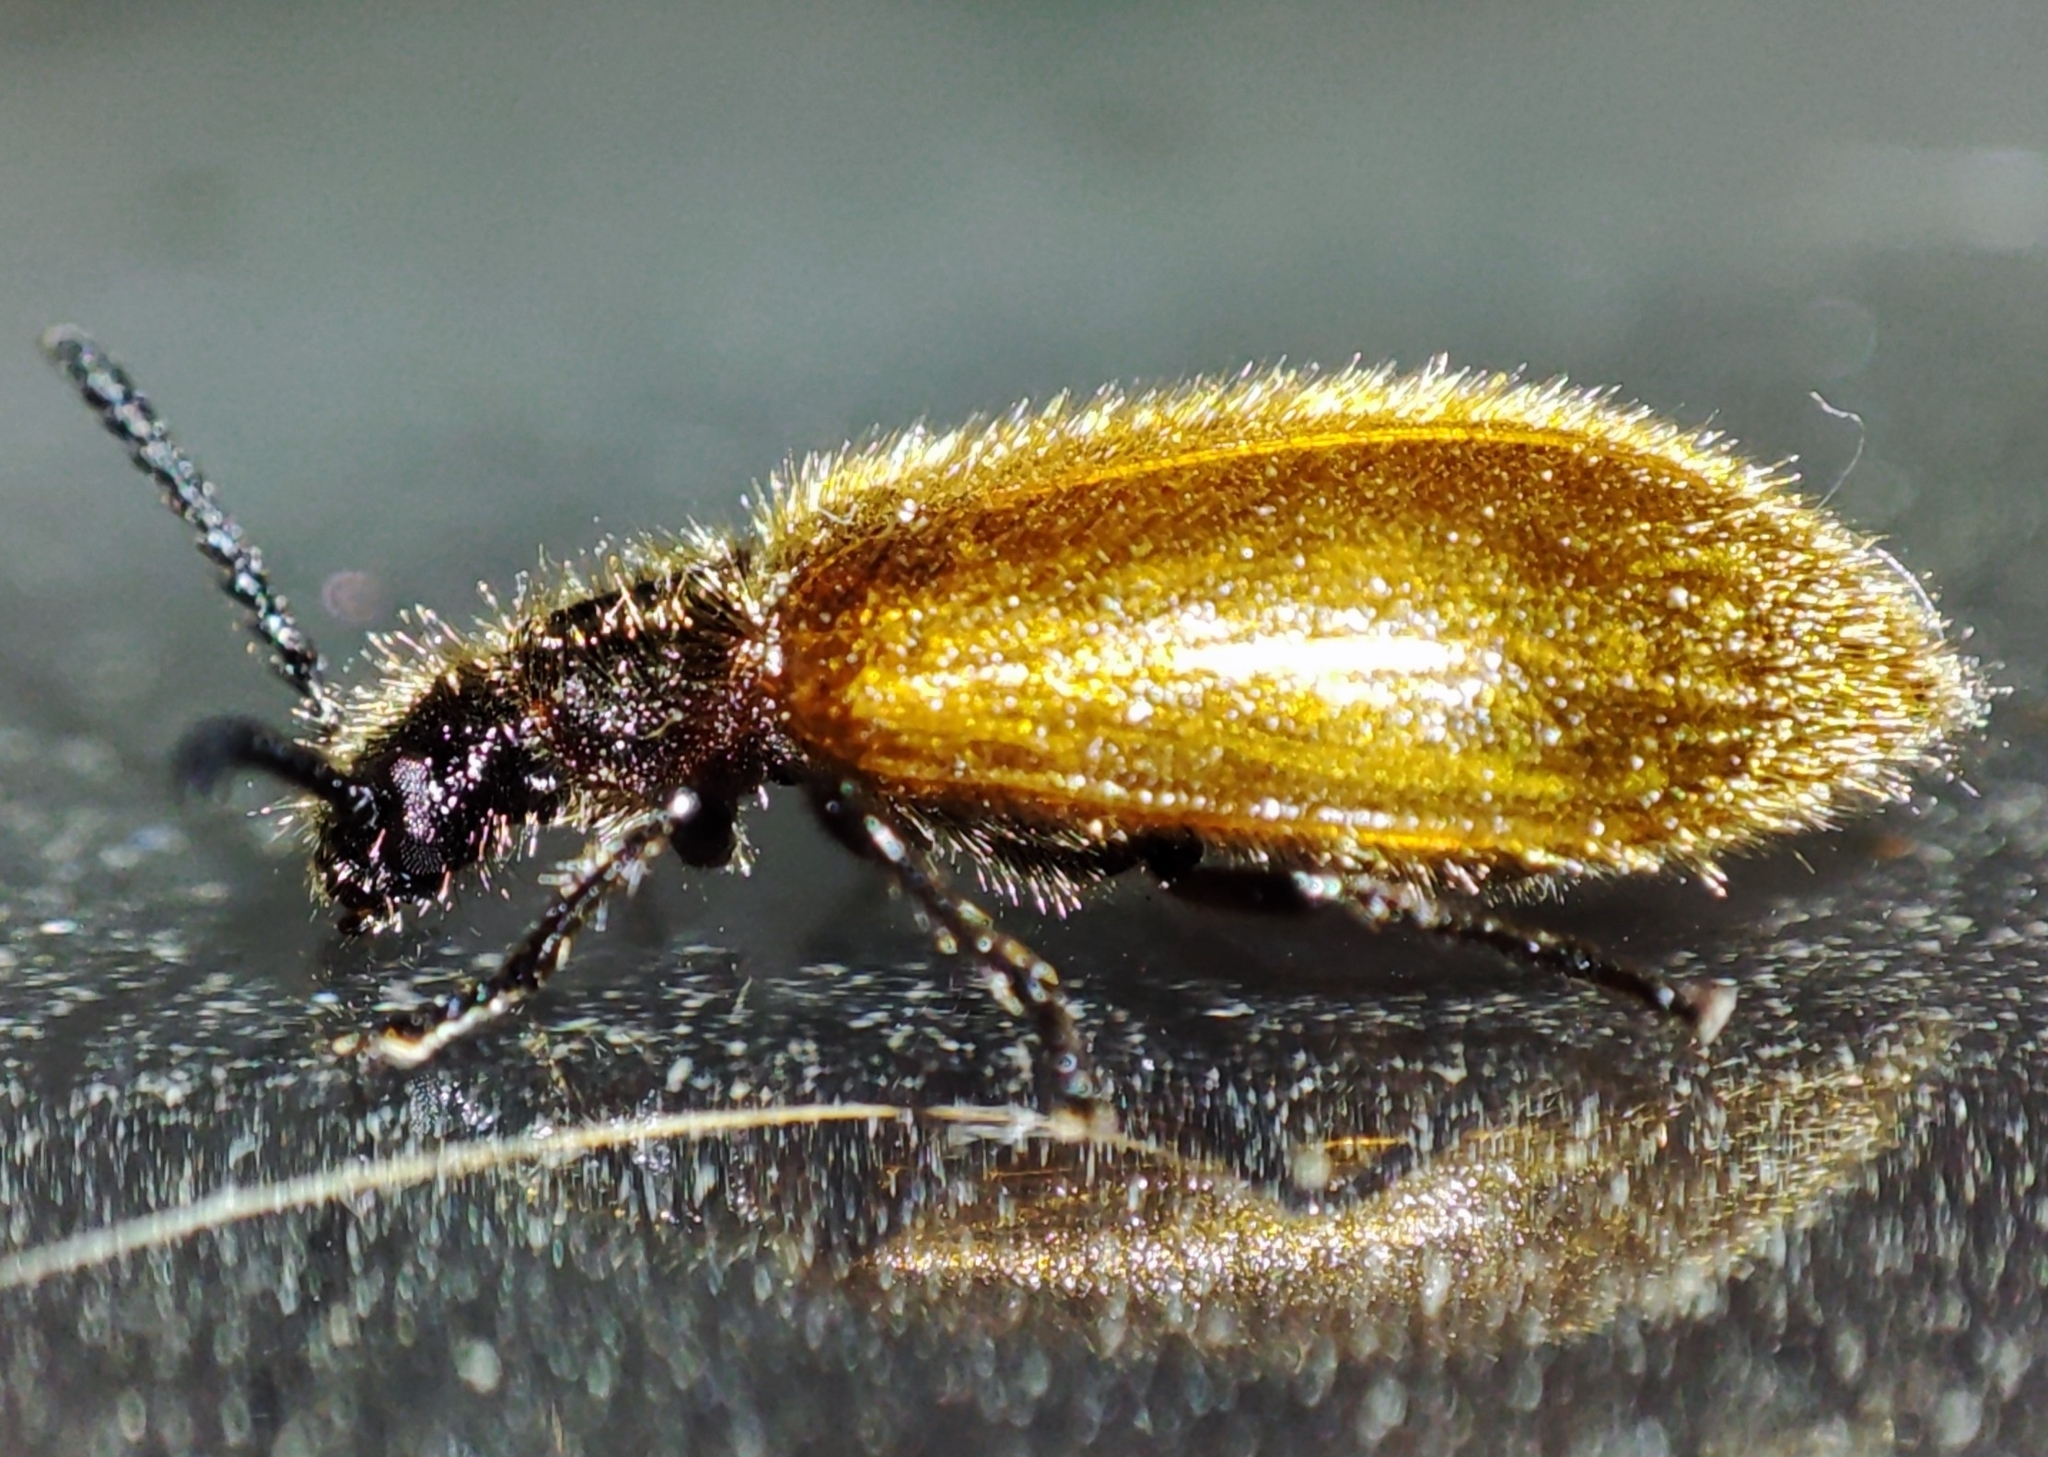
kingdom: Animalia
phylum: Arthropoda
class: Insecta
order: Coleoptera
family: Tenebrionidae
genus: Lagria
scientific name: Lagria hirta
